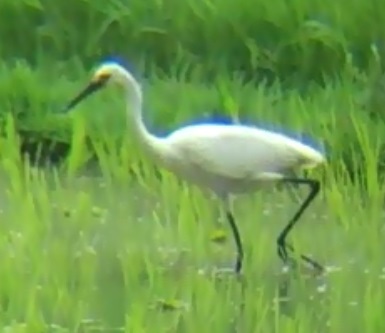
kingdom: Animalia
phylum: Chordata
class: Aves
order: Pelecaniformes
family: Ardeidae
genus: Egretta
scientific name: Egretta garzetta
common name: Little egret
